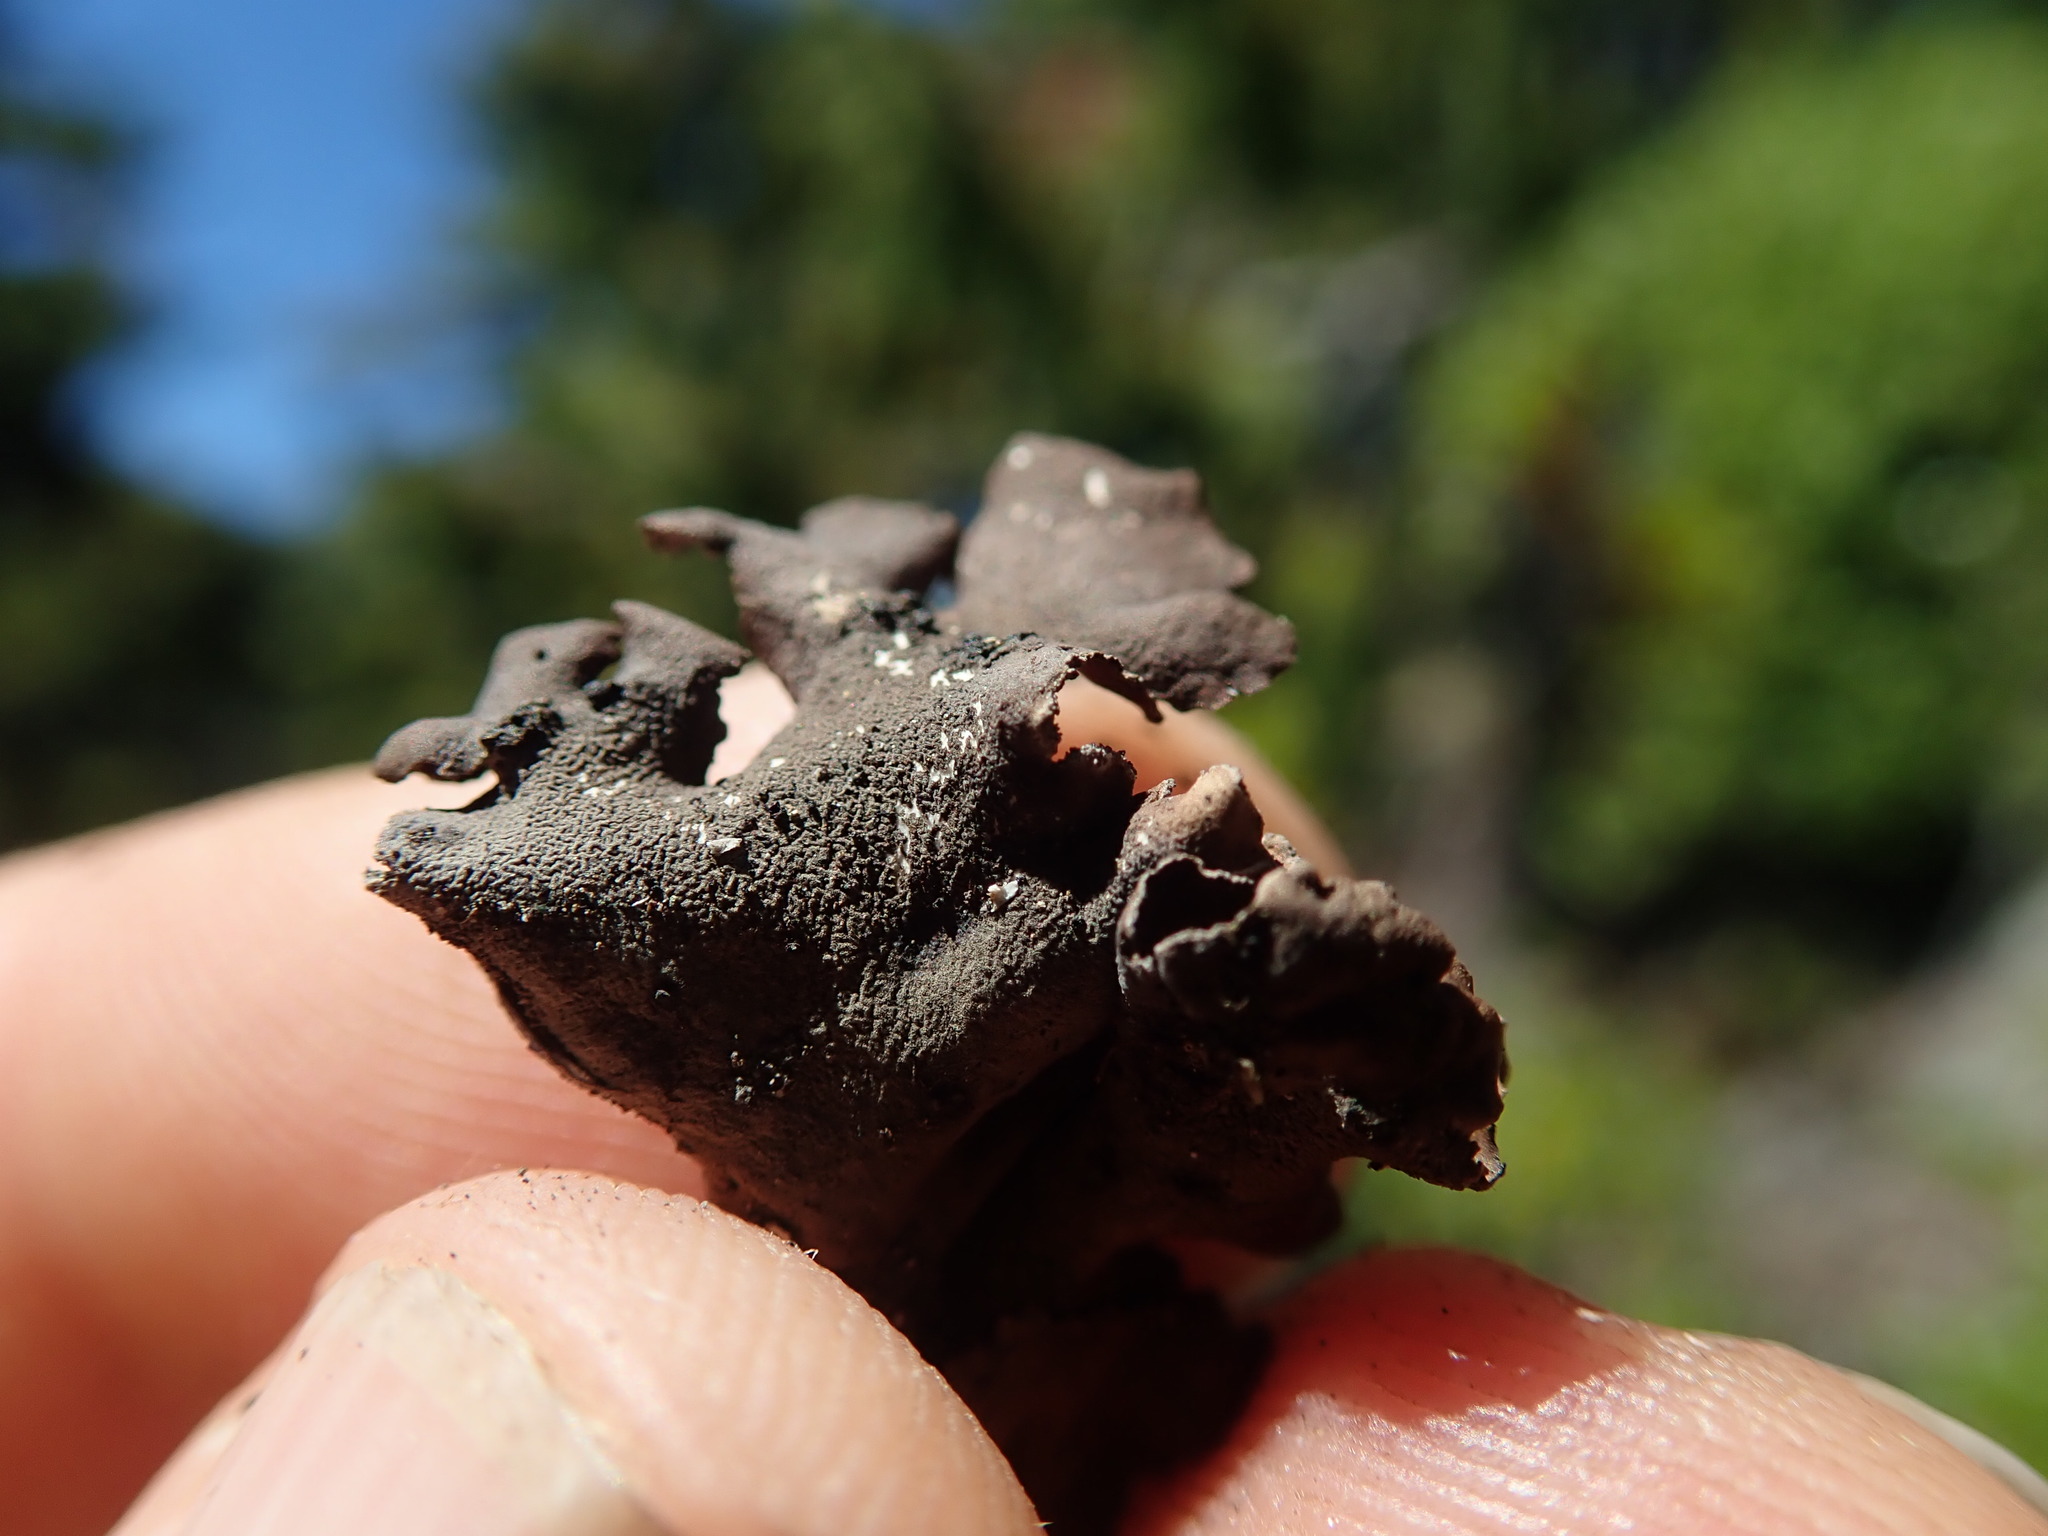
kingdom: Fungi
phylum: Ascomycota
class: Lecanoromycetes
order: Peltigerales
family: Nephromataceae
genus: Nephroma
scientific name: Nephroma parile
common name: Powdery kidney lichen
